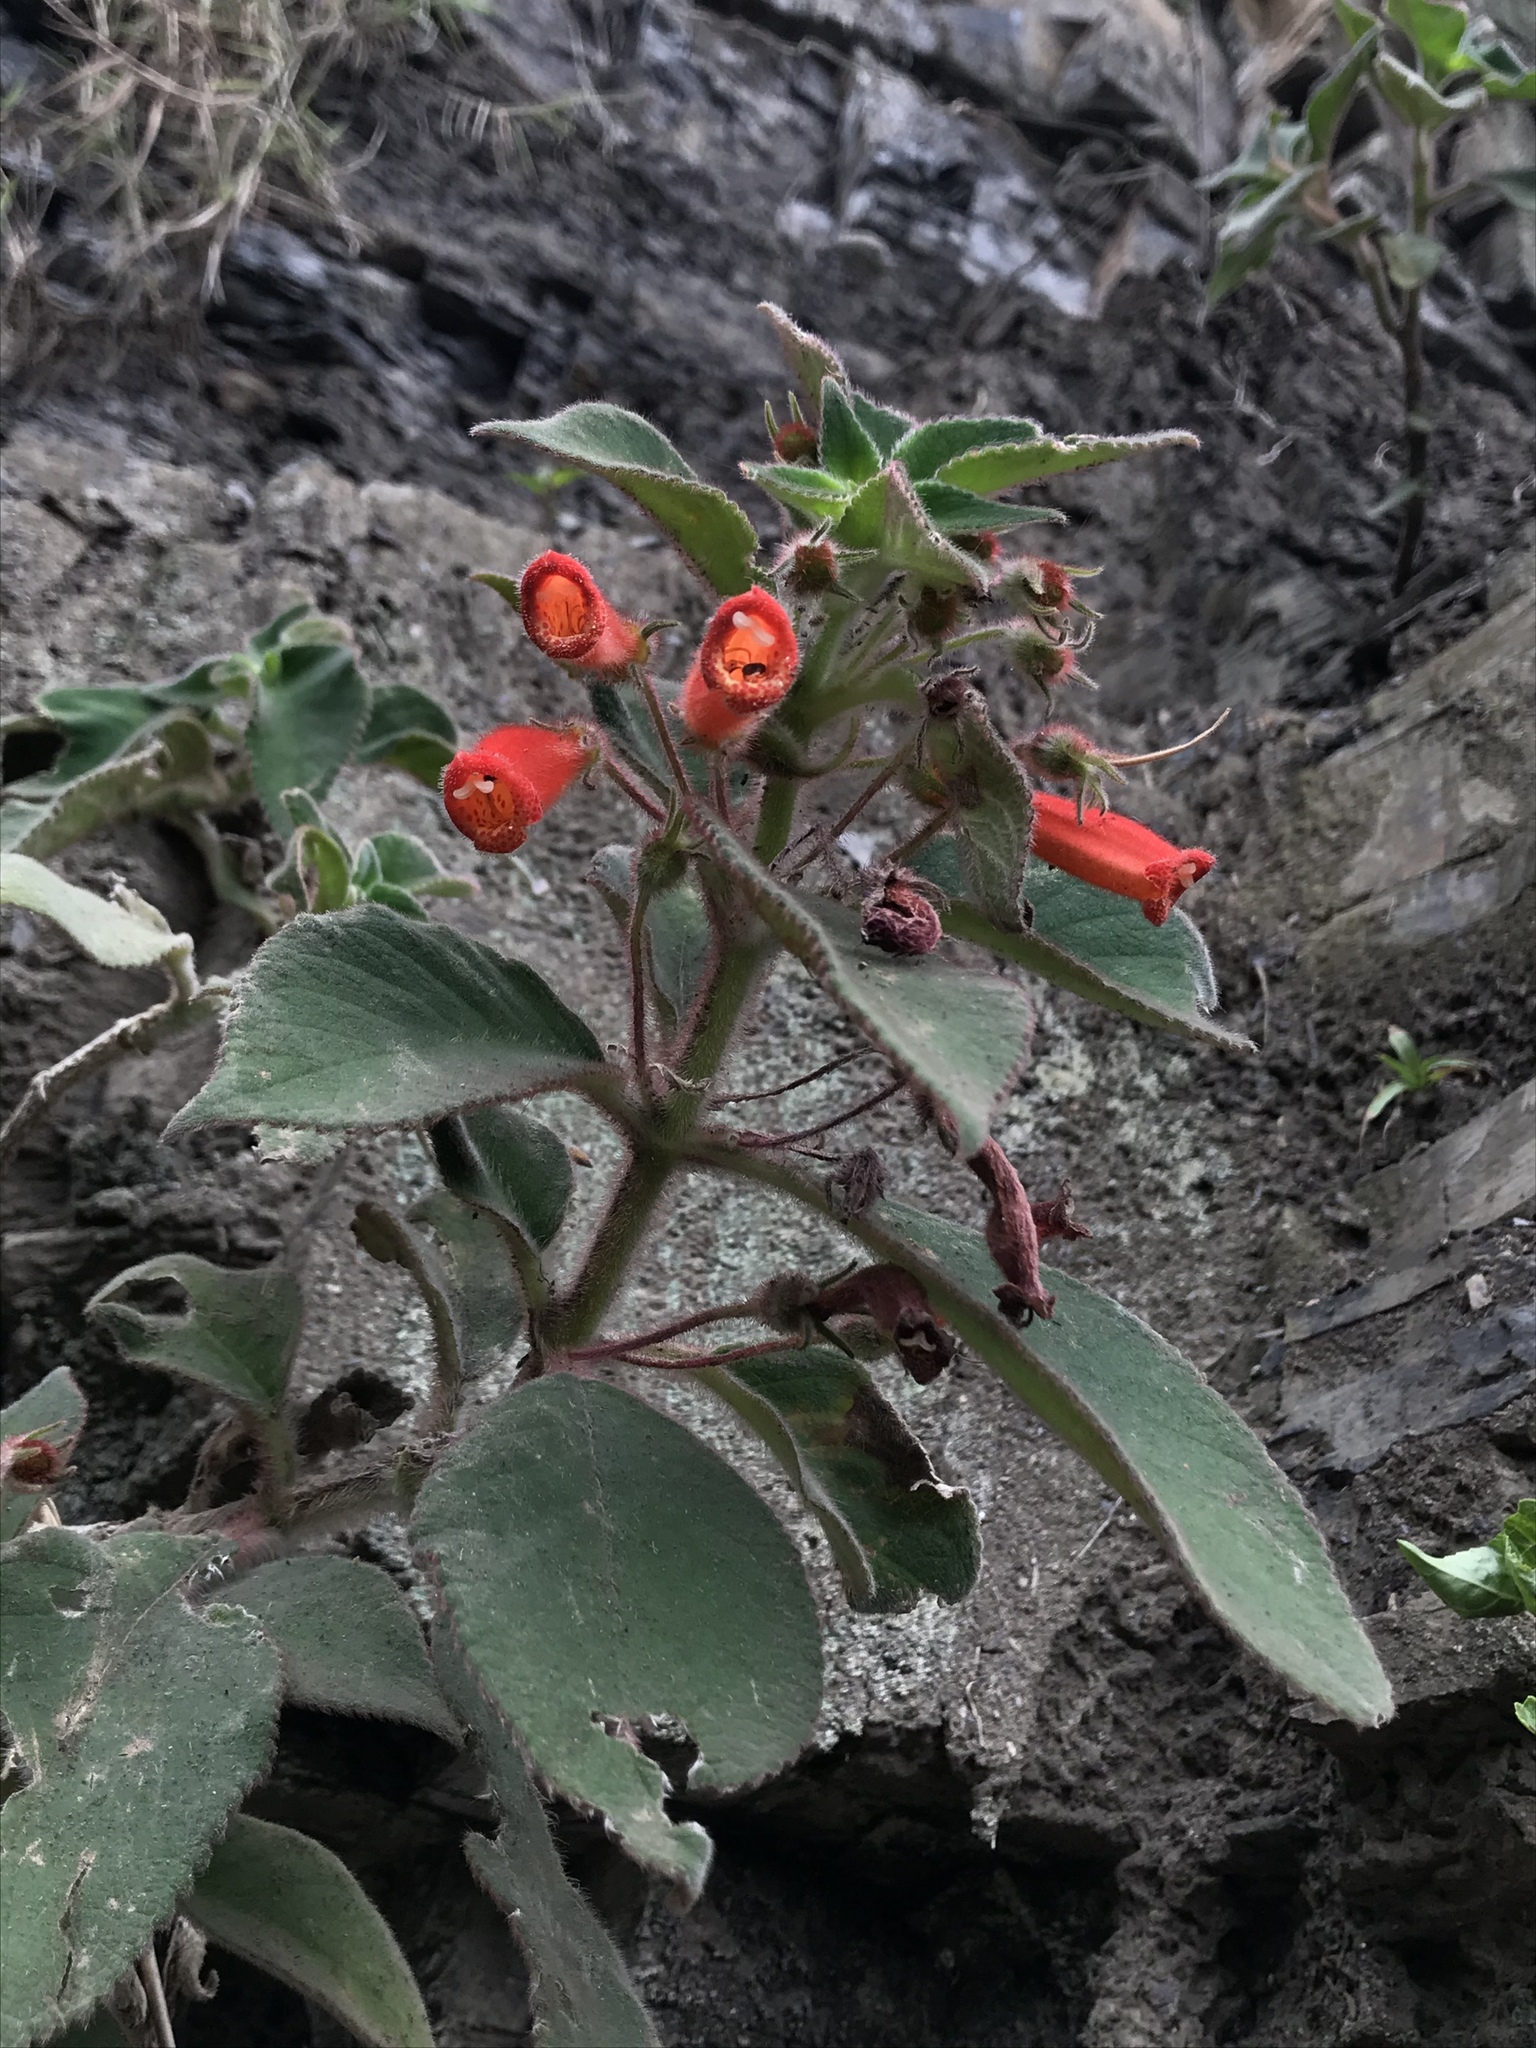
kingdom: Plantae
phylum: Tracheophyta
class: Magnoliopsida
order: Lamiales
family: Gesneriaceae
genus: Kohleria
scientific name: Kohleria hirsuta
